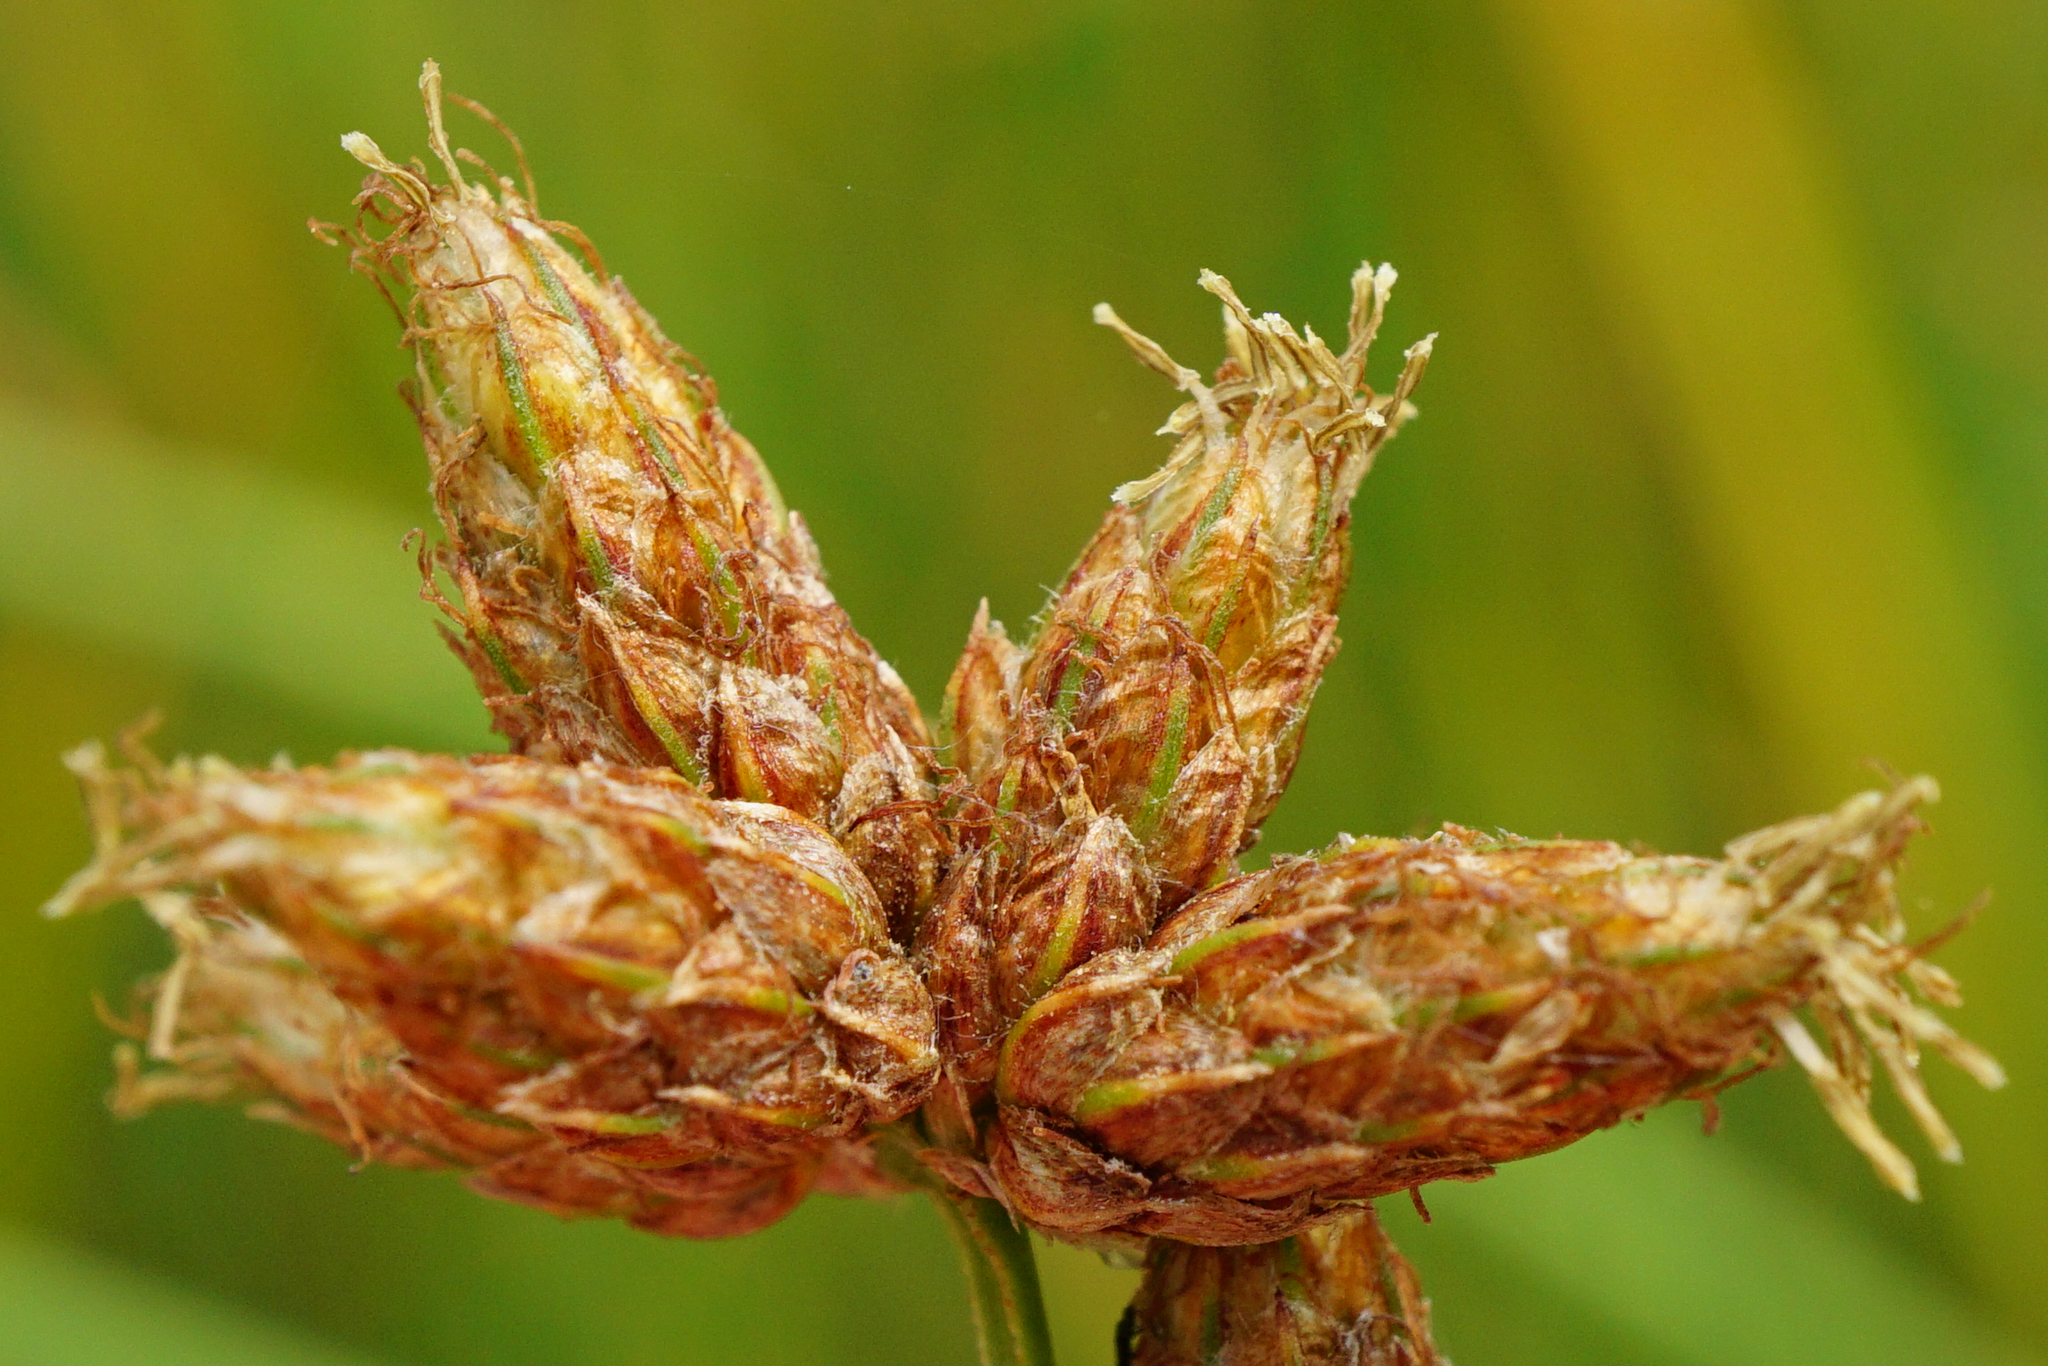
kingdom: Plantae
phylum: Tracheophyta
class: Liliopsida
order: Poales
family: Cyperaceae
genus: Schoenoplectus
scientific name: Schoenoplectus tabernaemontani
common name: Grey club-rush
